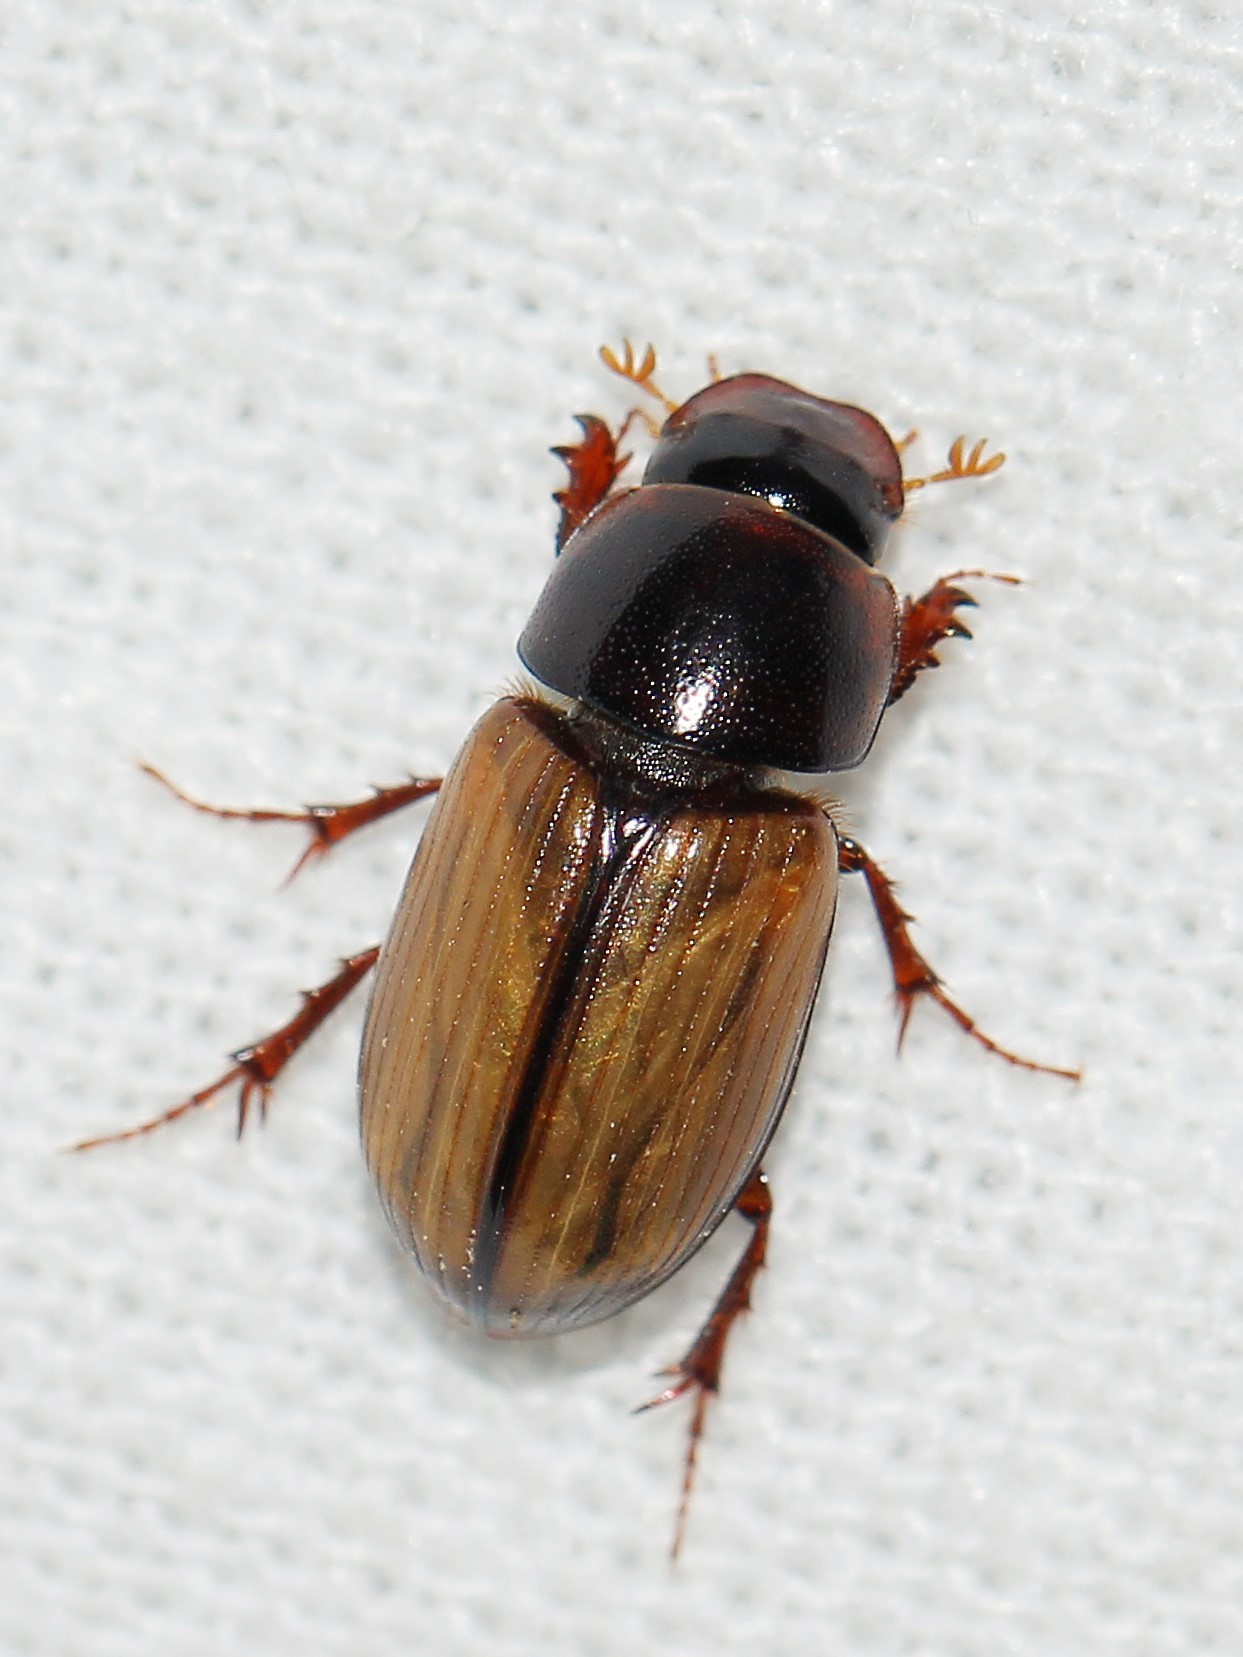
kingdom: Animalia
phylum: Arthropoda
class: Insecta
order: Coleoptera
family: Scarabaeidae
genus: Bodilus
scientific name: Bodilus lugens
